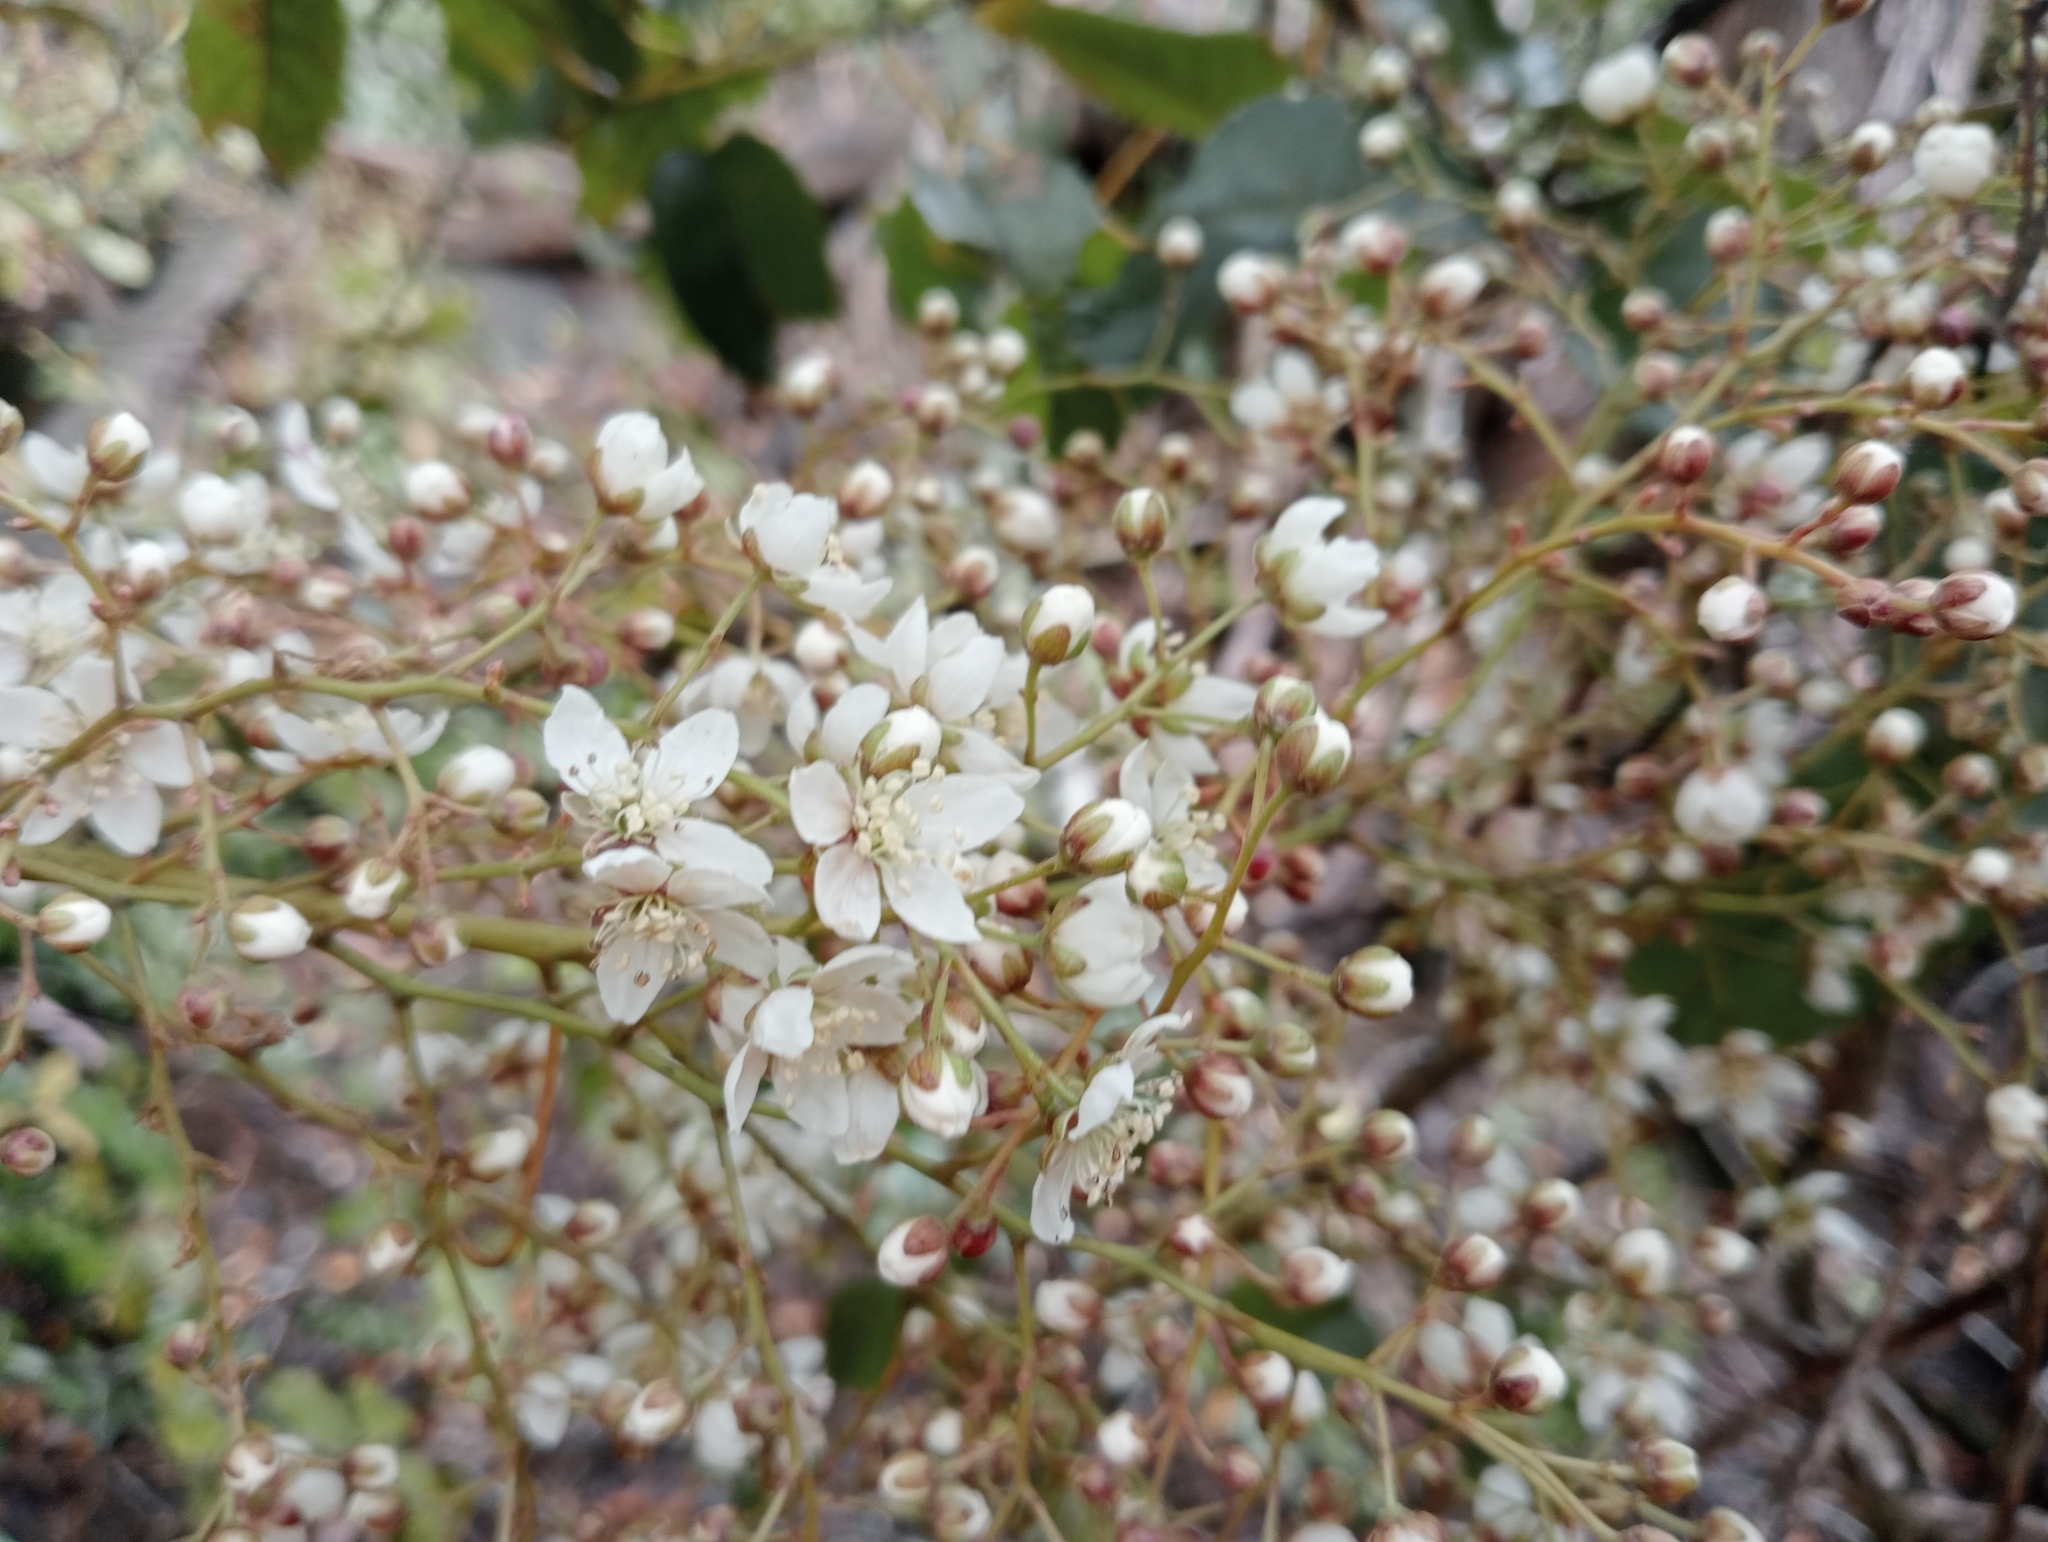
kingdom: Plantae
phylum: Tracheophyta
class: Magnoliopsida
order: Rosales
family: Rosaceae
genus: Rubus
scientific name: Rubus cissoides
